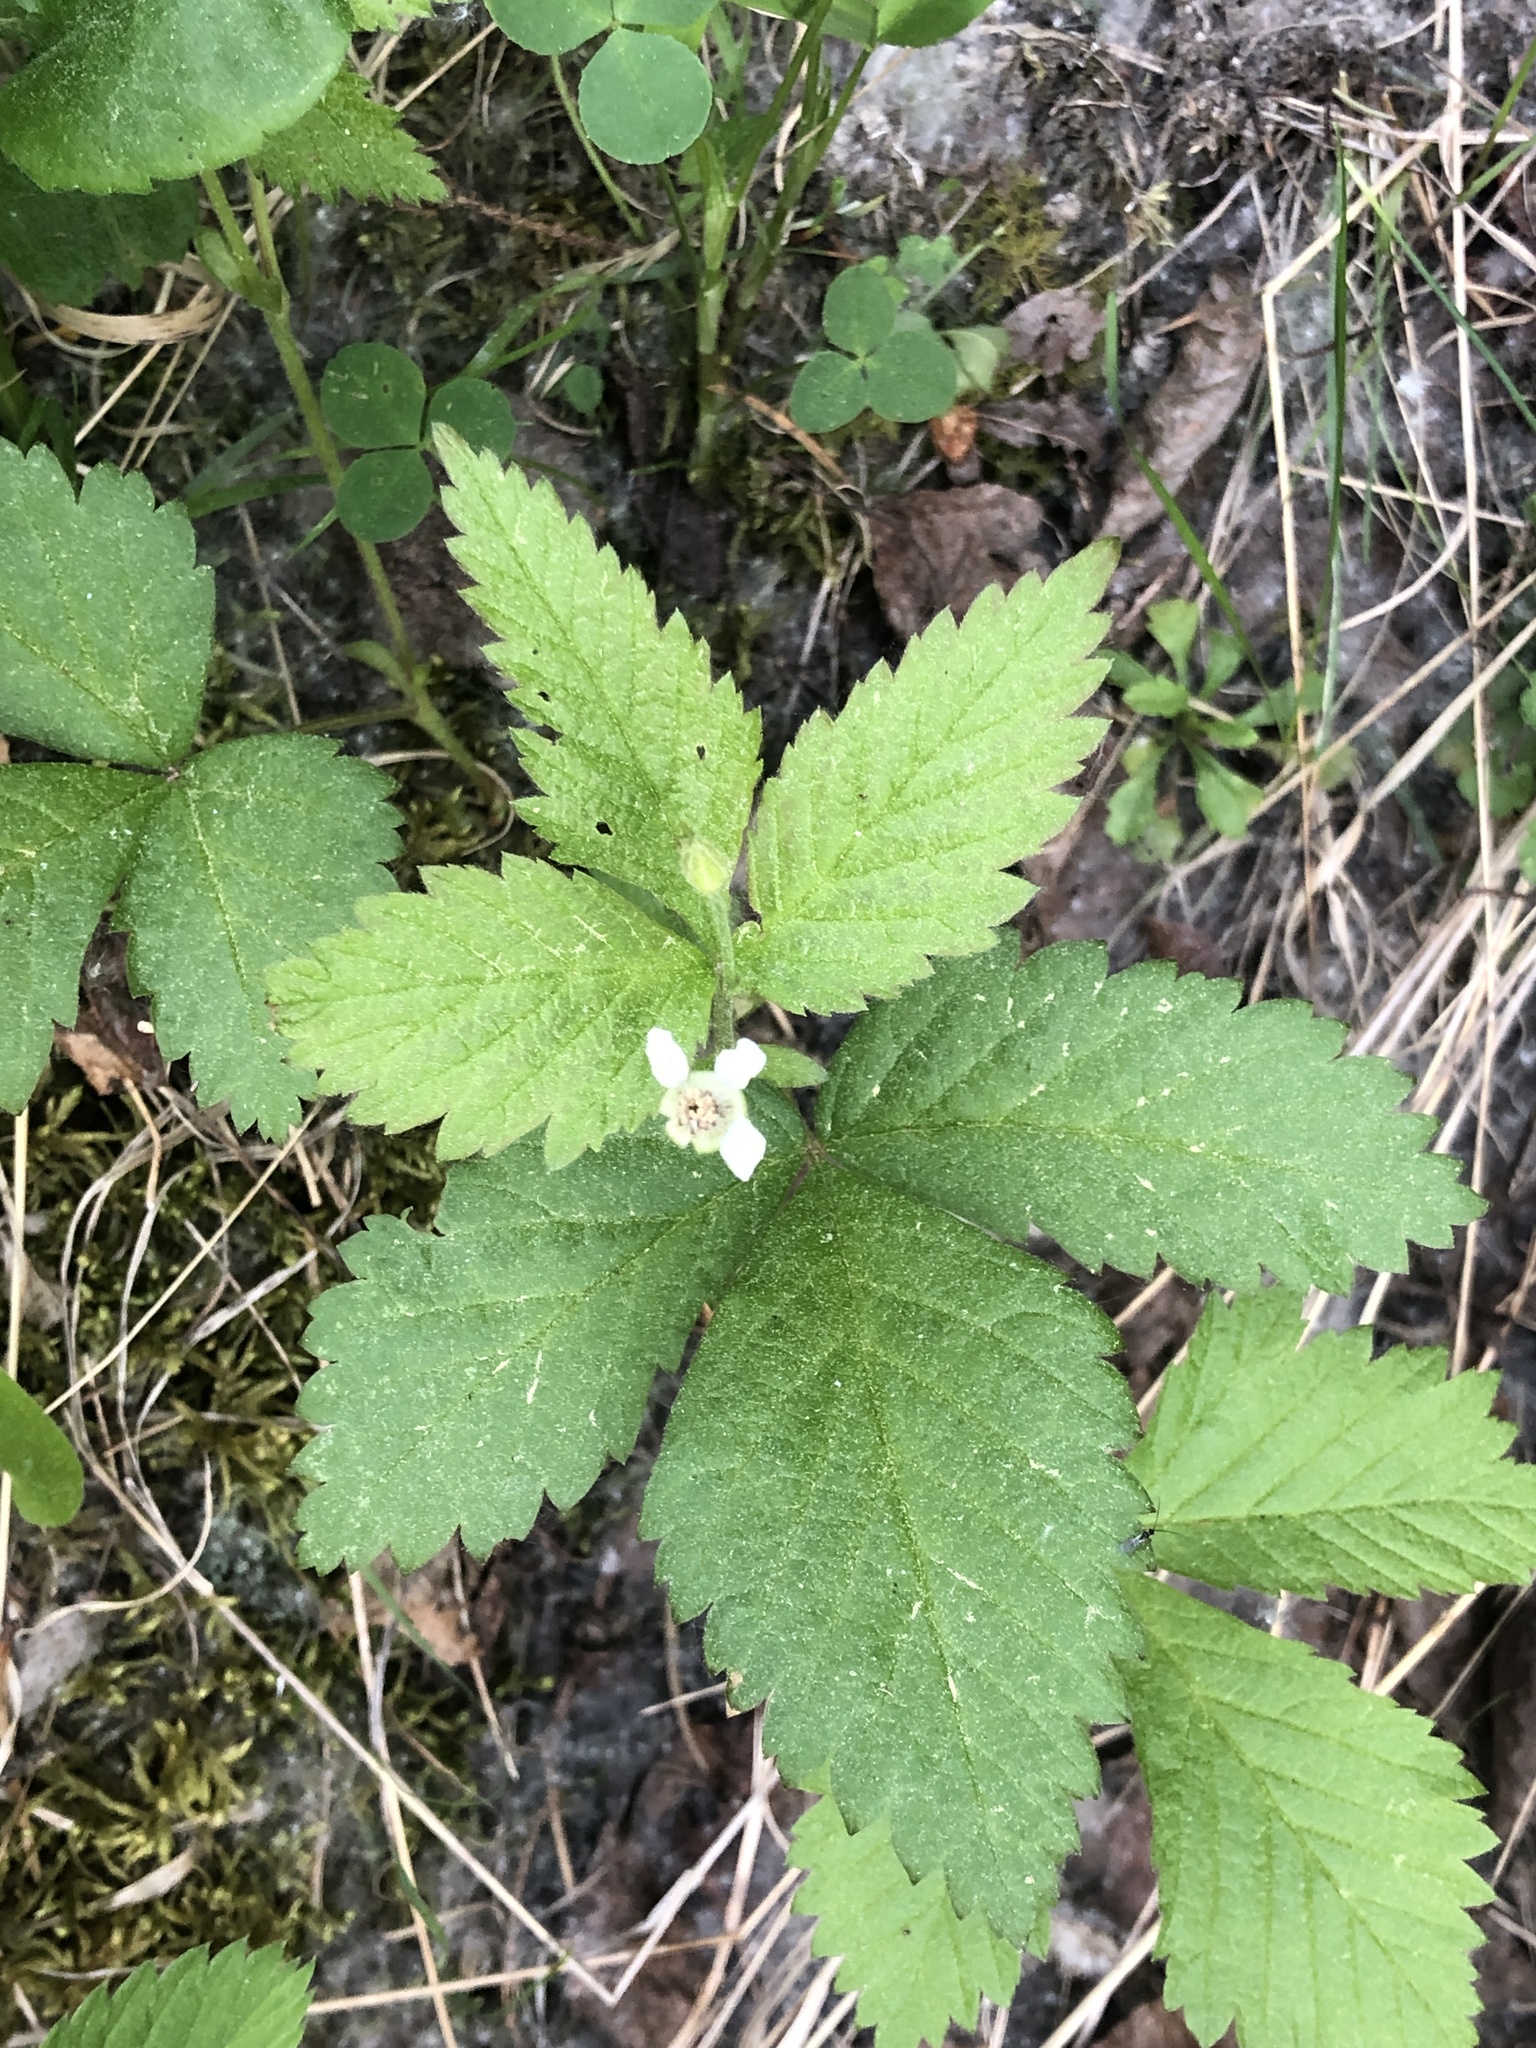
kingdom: Plantae
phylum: Tracheophyta
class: Magnoliopsida
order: Rosales
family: Rosaceae
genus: Rubus
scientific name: Rubus pubescens
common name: Dwarf raspberry
